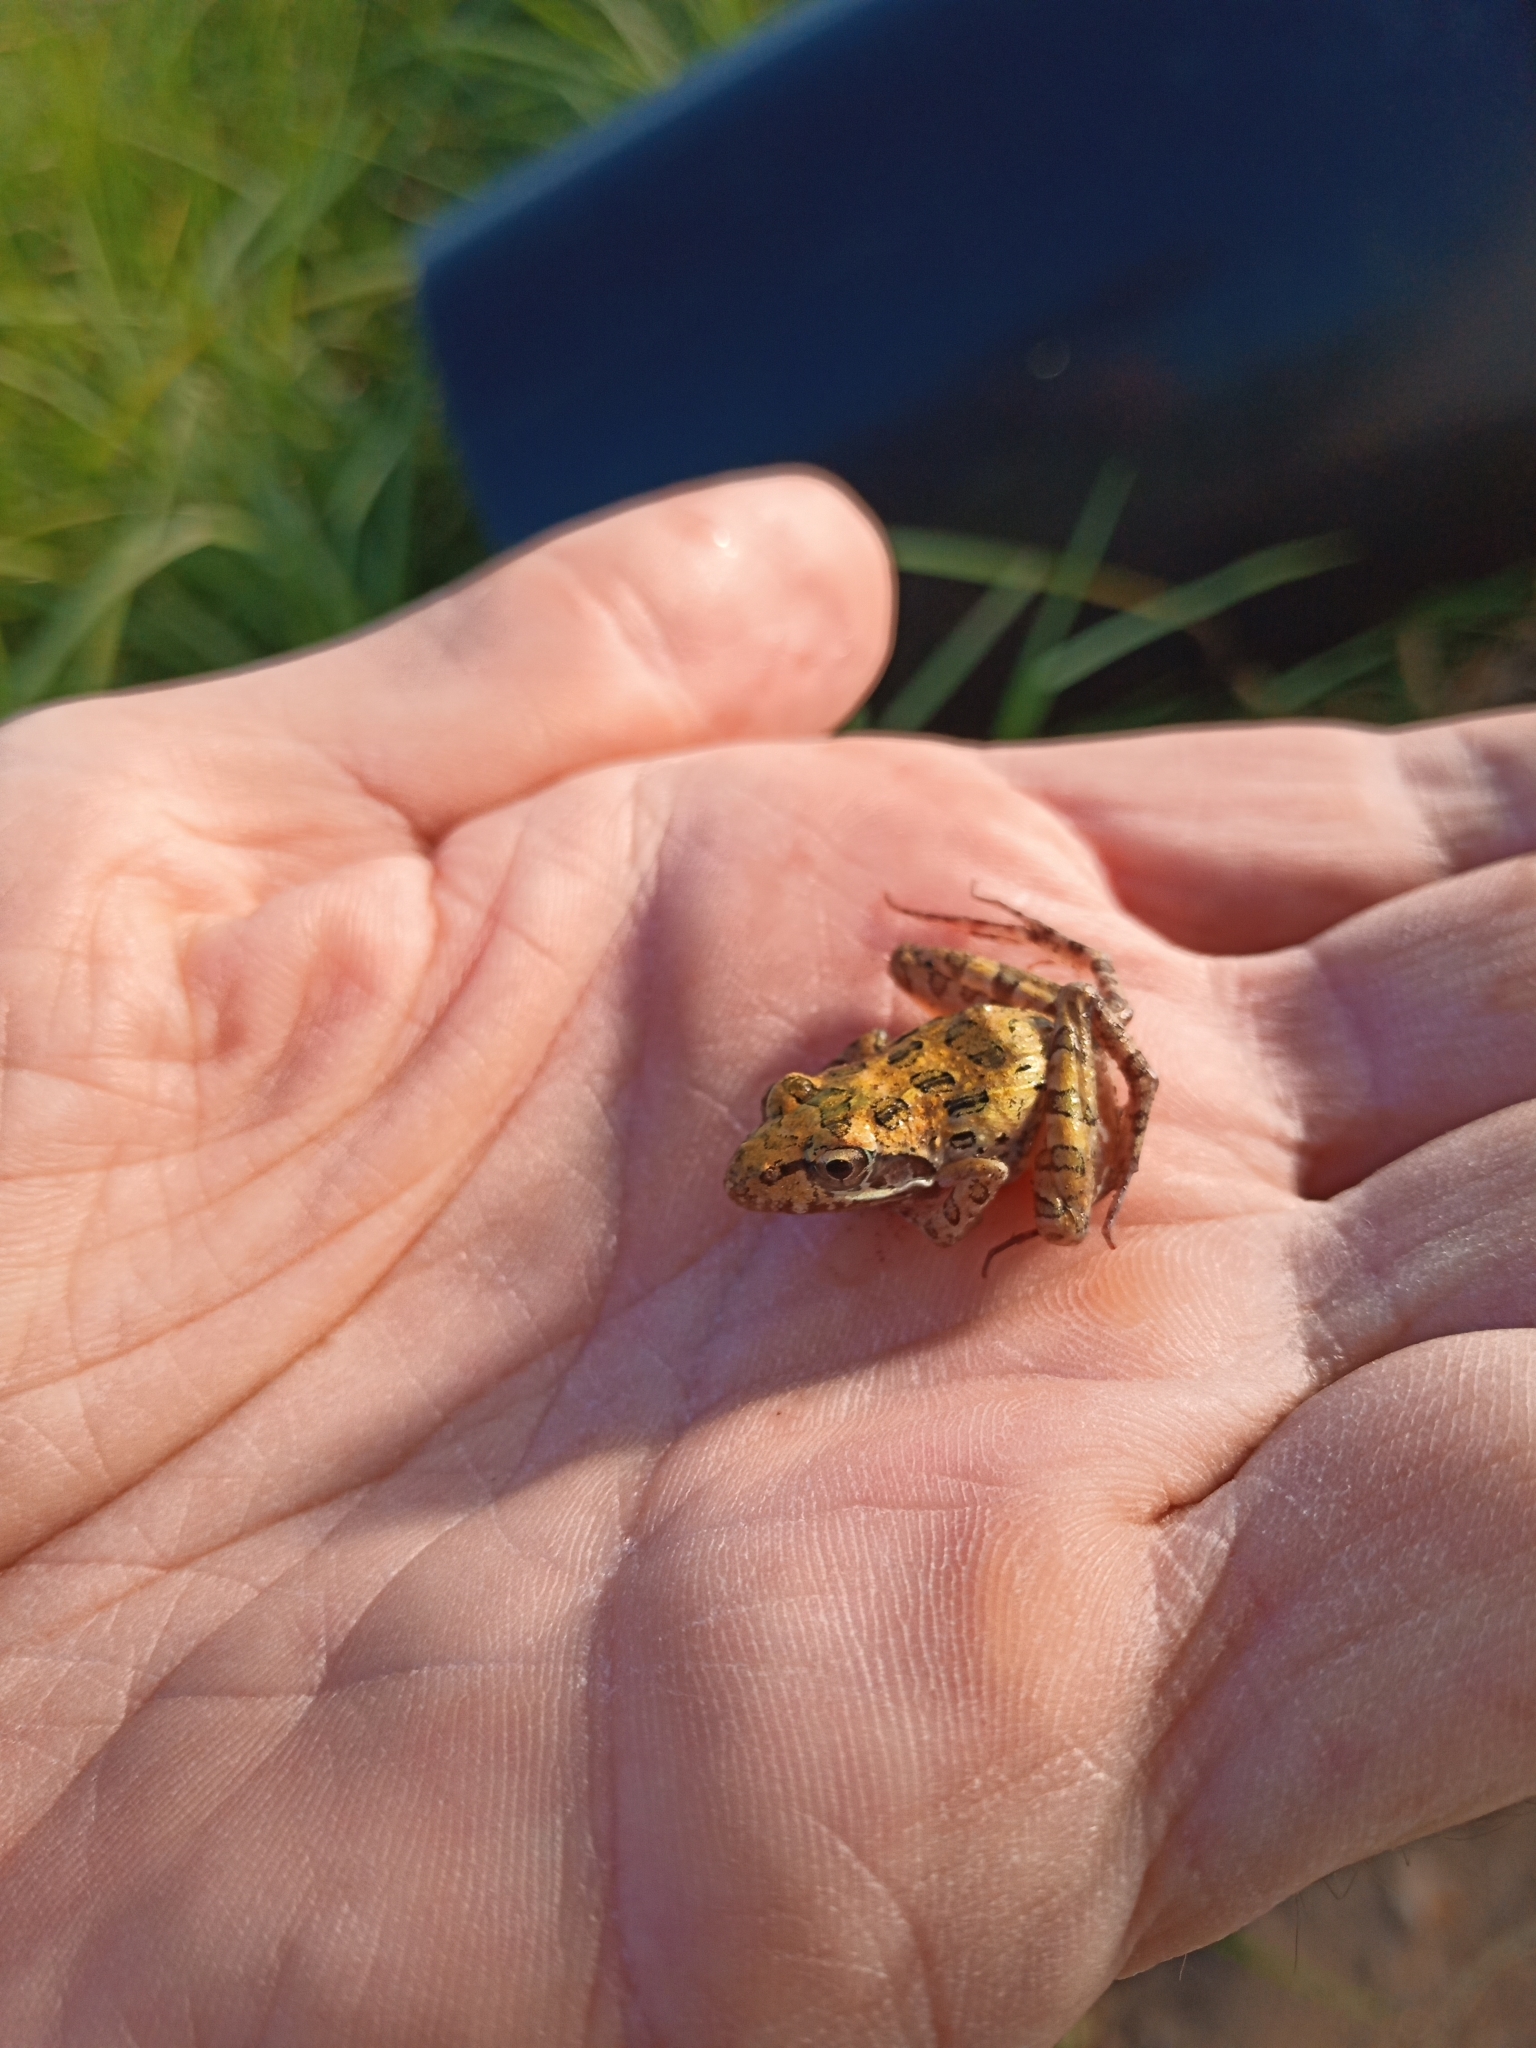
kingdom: Animalia
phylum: Chordata
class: Amphibia
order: Anura
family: Pyxicephalidae
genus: Strongylopus
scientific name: Strongylopus grayii
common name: Gray's stream frog
